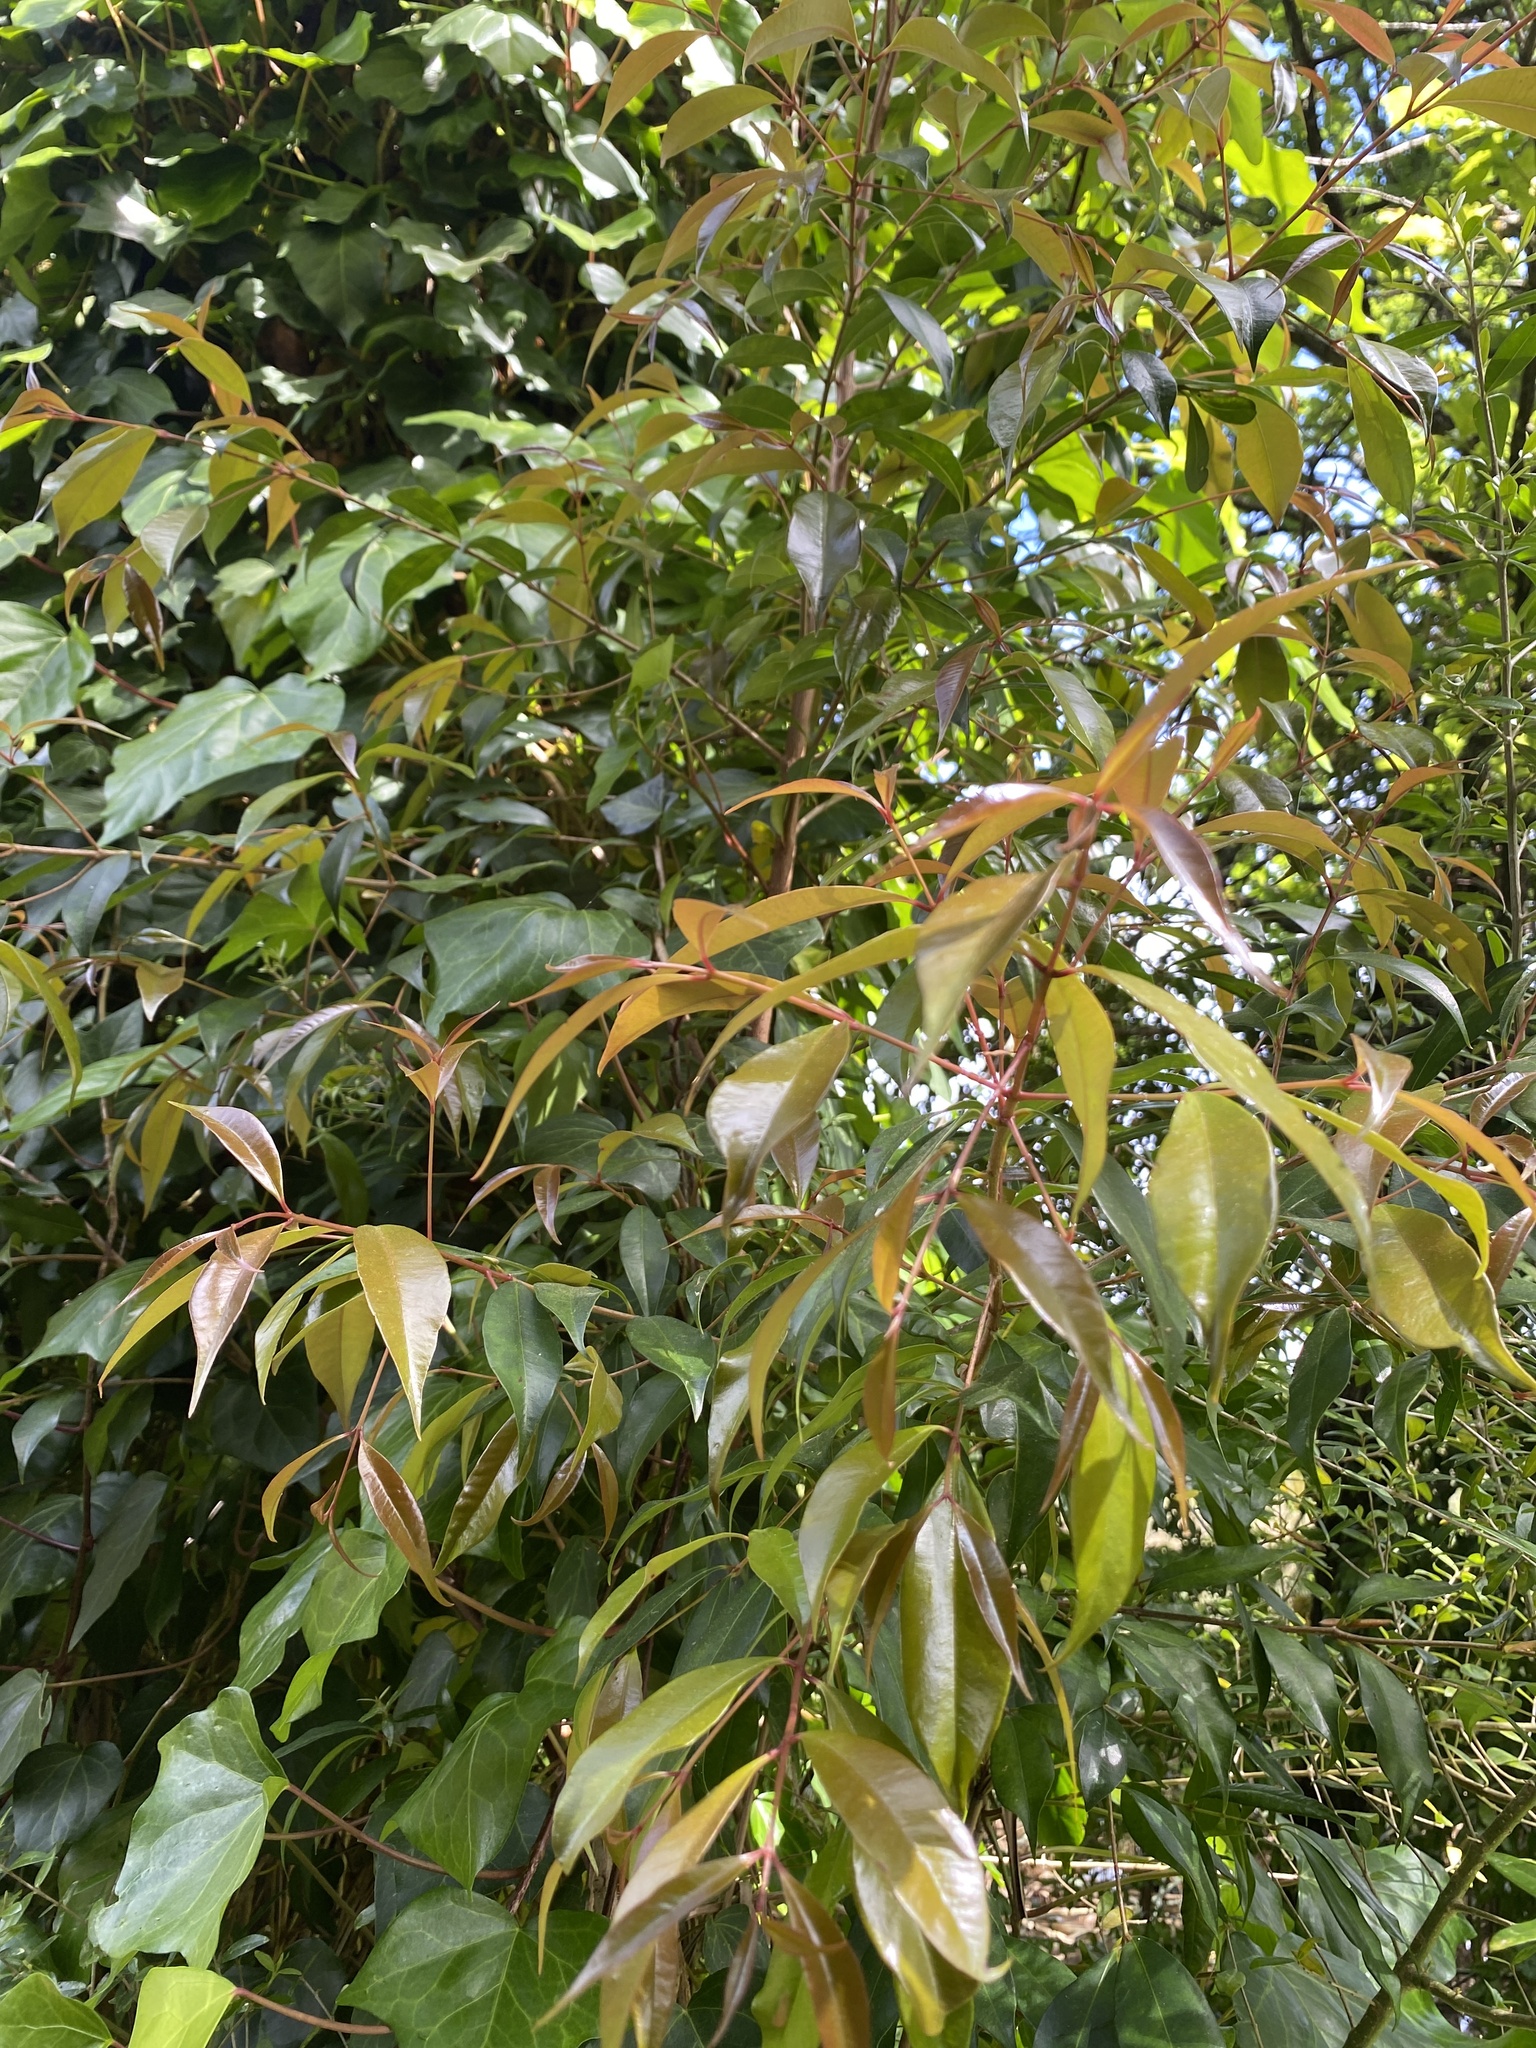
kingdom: Plantae
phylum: Tracheophyta
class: Magnoliopsida
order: Sapindales
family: Anacardiaceae
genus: Searsia
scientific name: Searsia chirindensis
